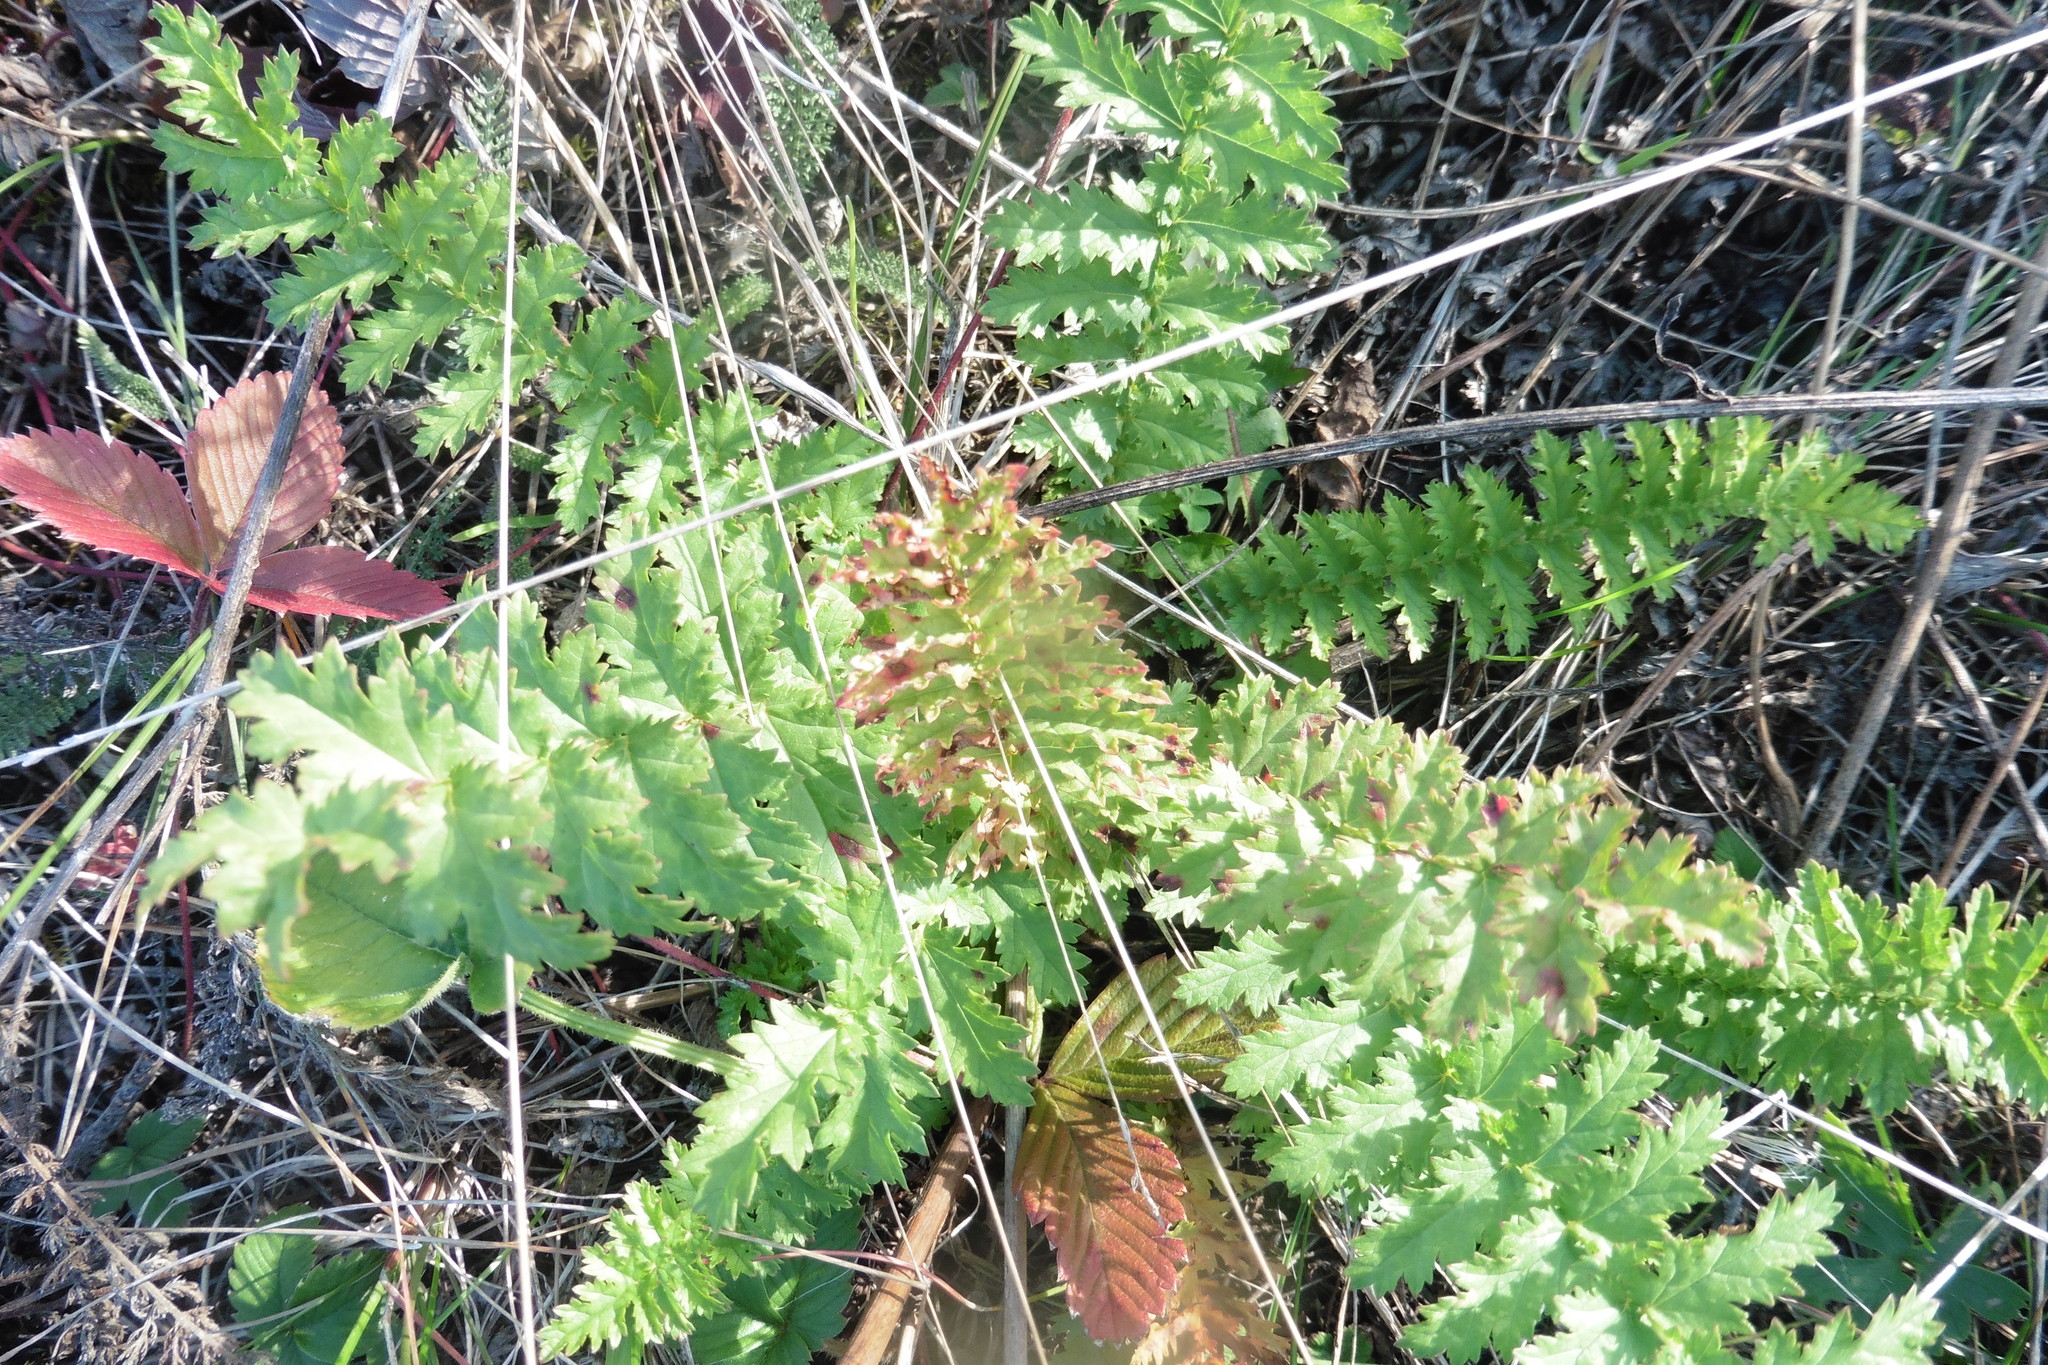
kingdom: Plantae
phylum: Tracheophyta
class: Magnoliopsida
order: Rosales
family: Rosaceae
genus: Filipendula
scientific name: Filipendula vulgaris
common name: Dropwort
